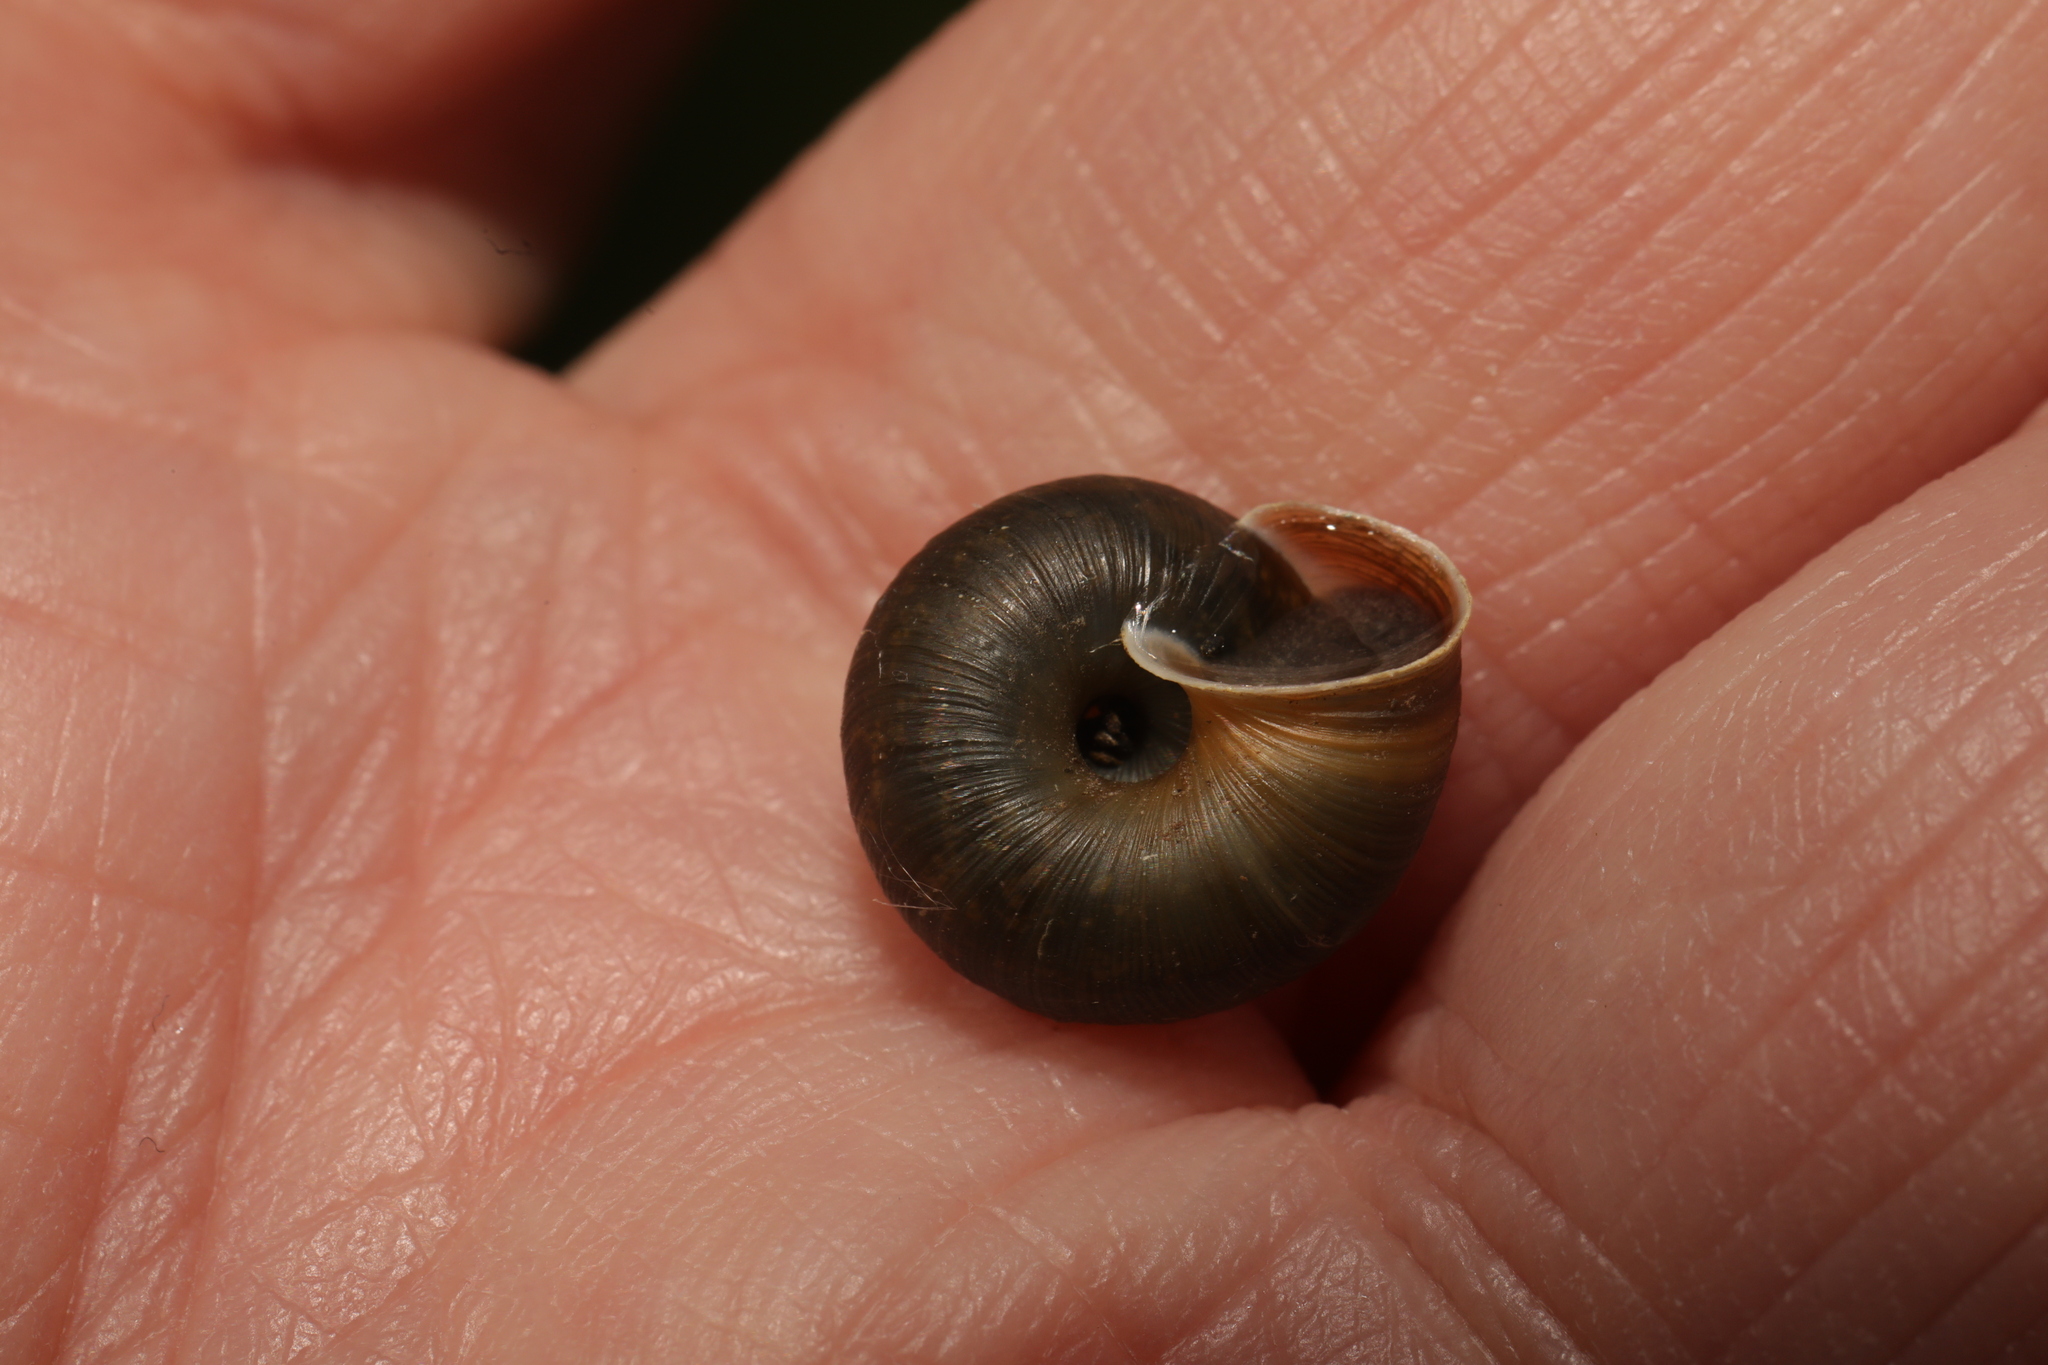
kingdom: Animalia
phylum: Mollusca
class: Gastropoda
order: Stylommatophora
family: Hygromiidae
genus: Trochulus
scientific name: Trochulus striolatus
